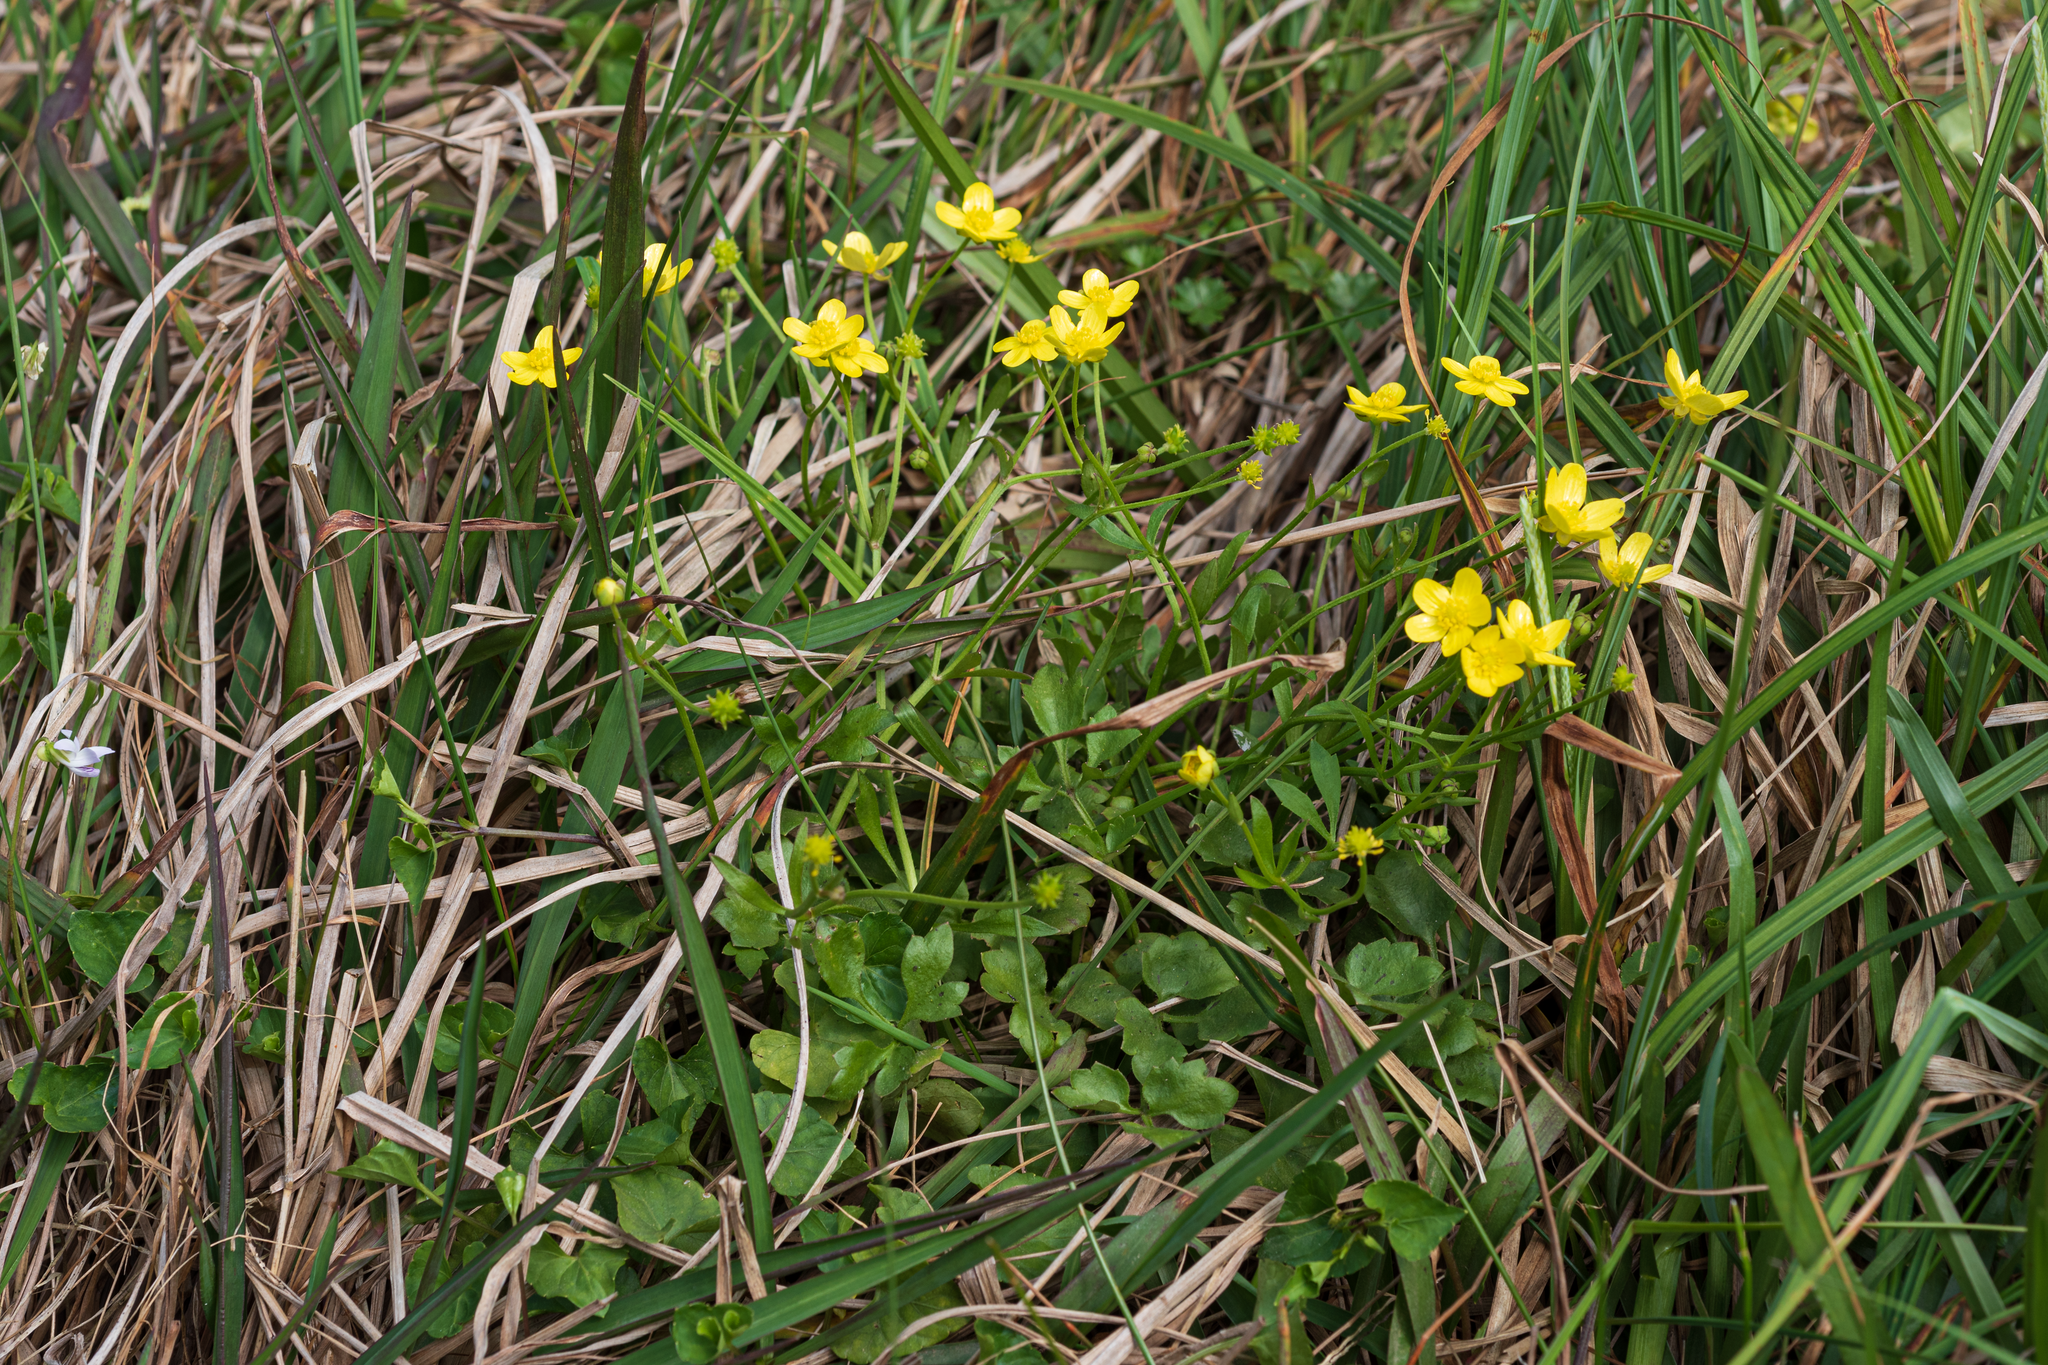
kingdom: Plantae
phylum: Tracheophyta
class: Magnoliopsida
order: Ranunculales
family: Ranunculaceae
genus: Ranunculus
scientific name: Ranunculus ternatus
